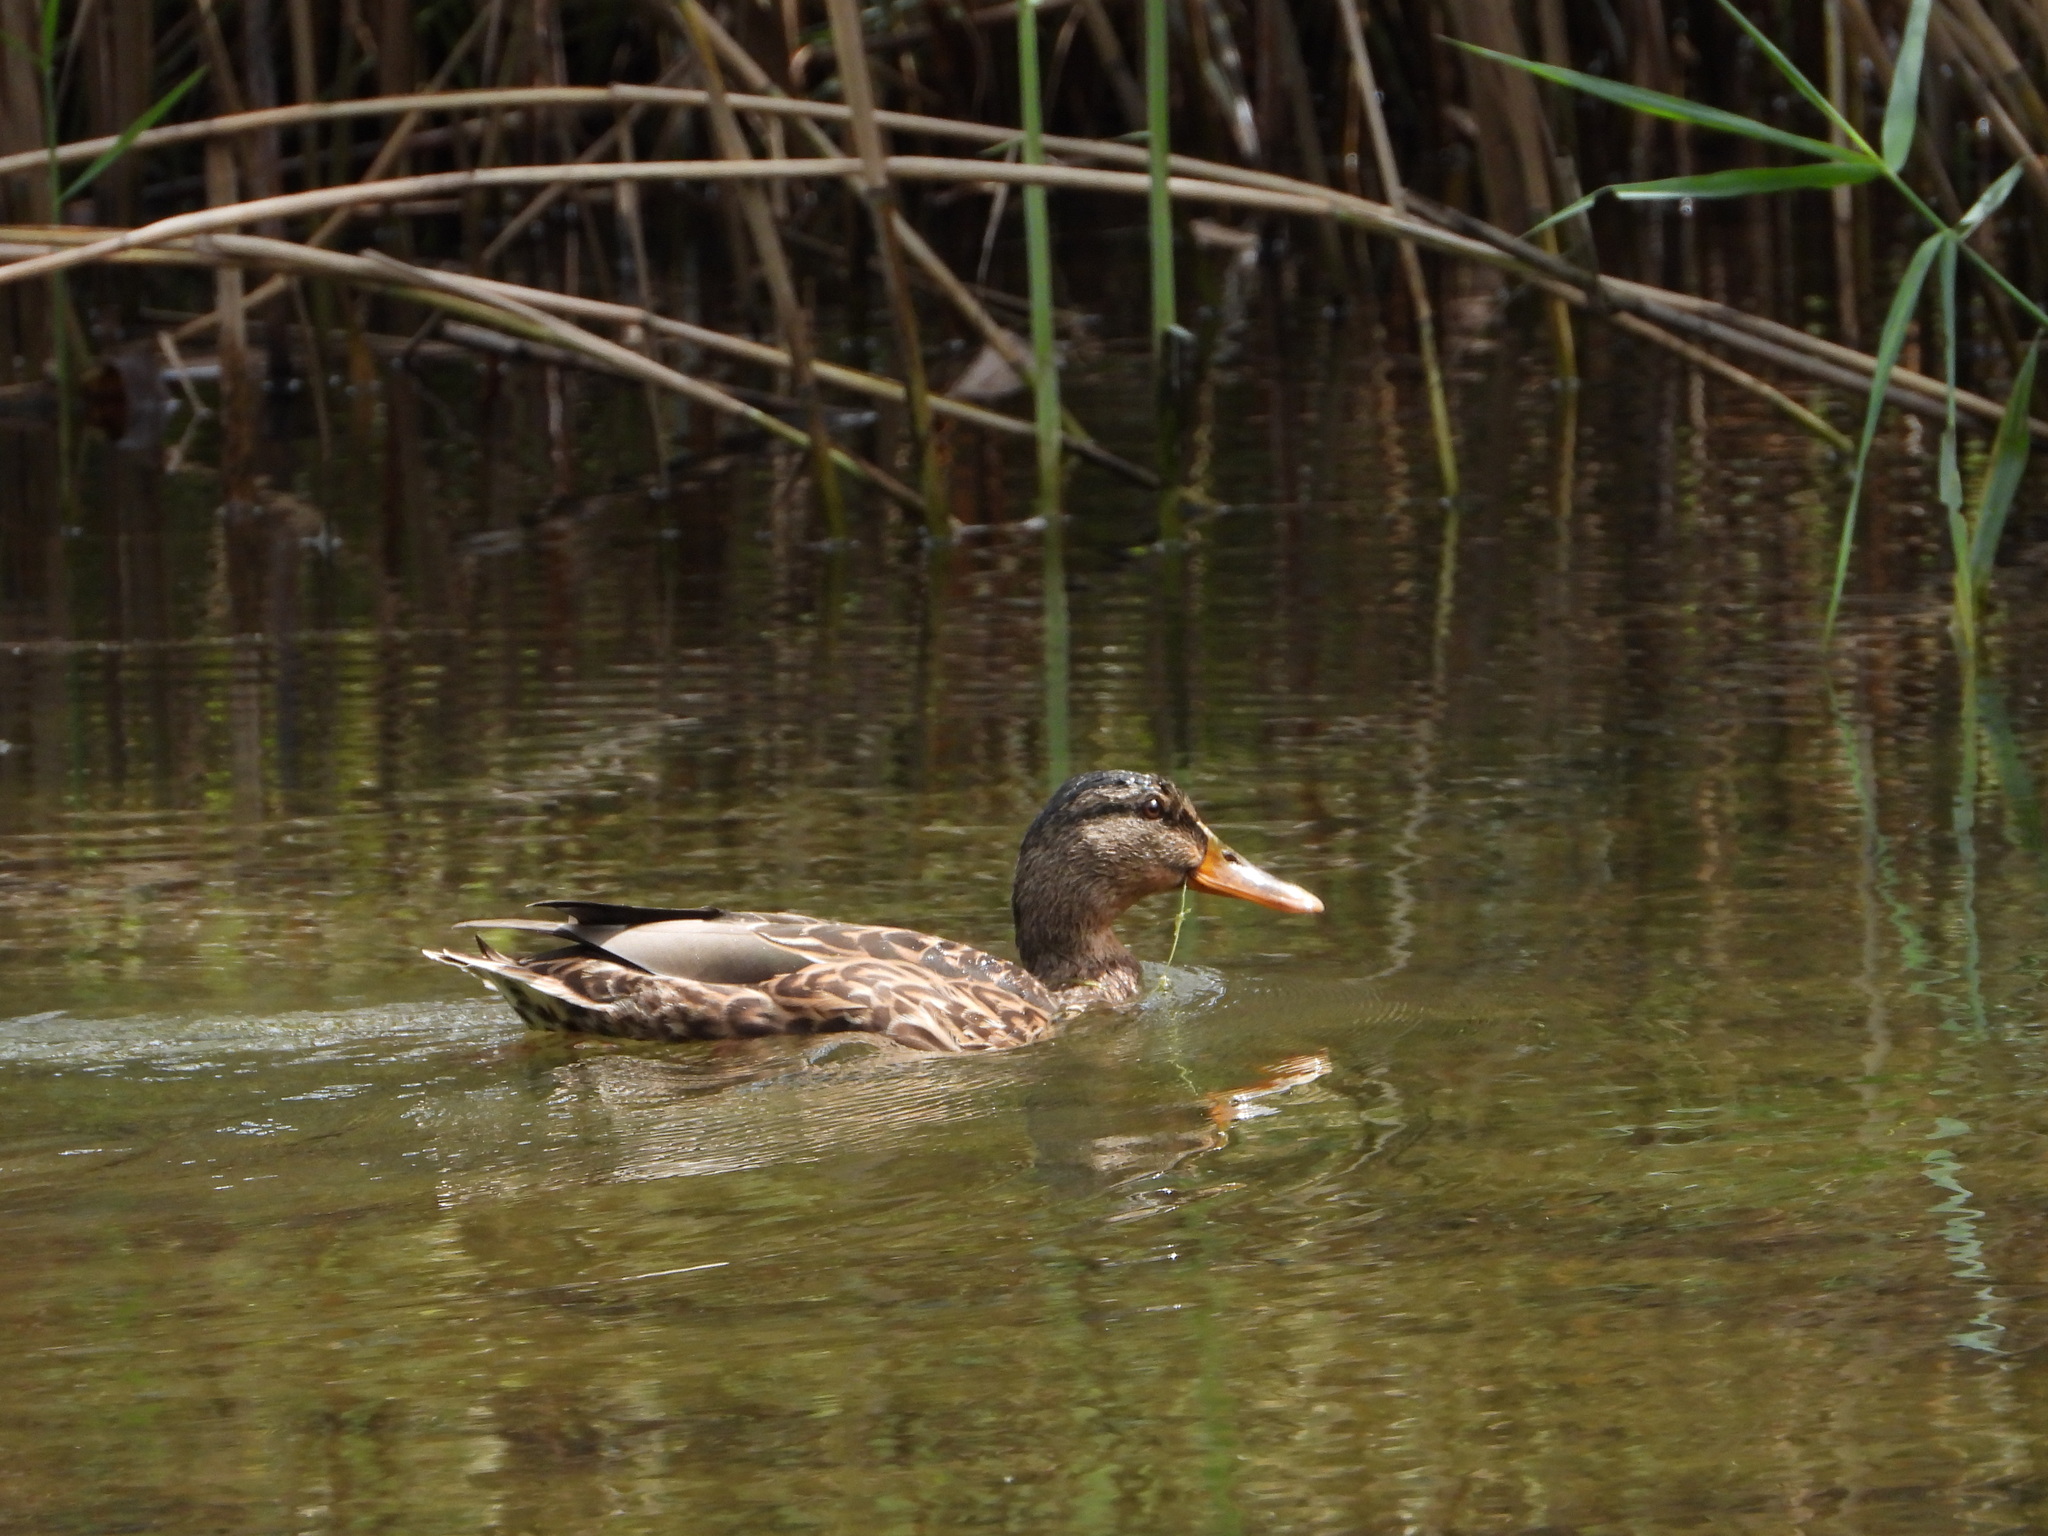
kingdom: Animalia
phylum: Chordata
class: Aves
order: Anseriformes
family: Anatidae
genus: Anas
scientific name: Anas platyrhynchos
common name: Mallard
